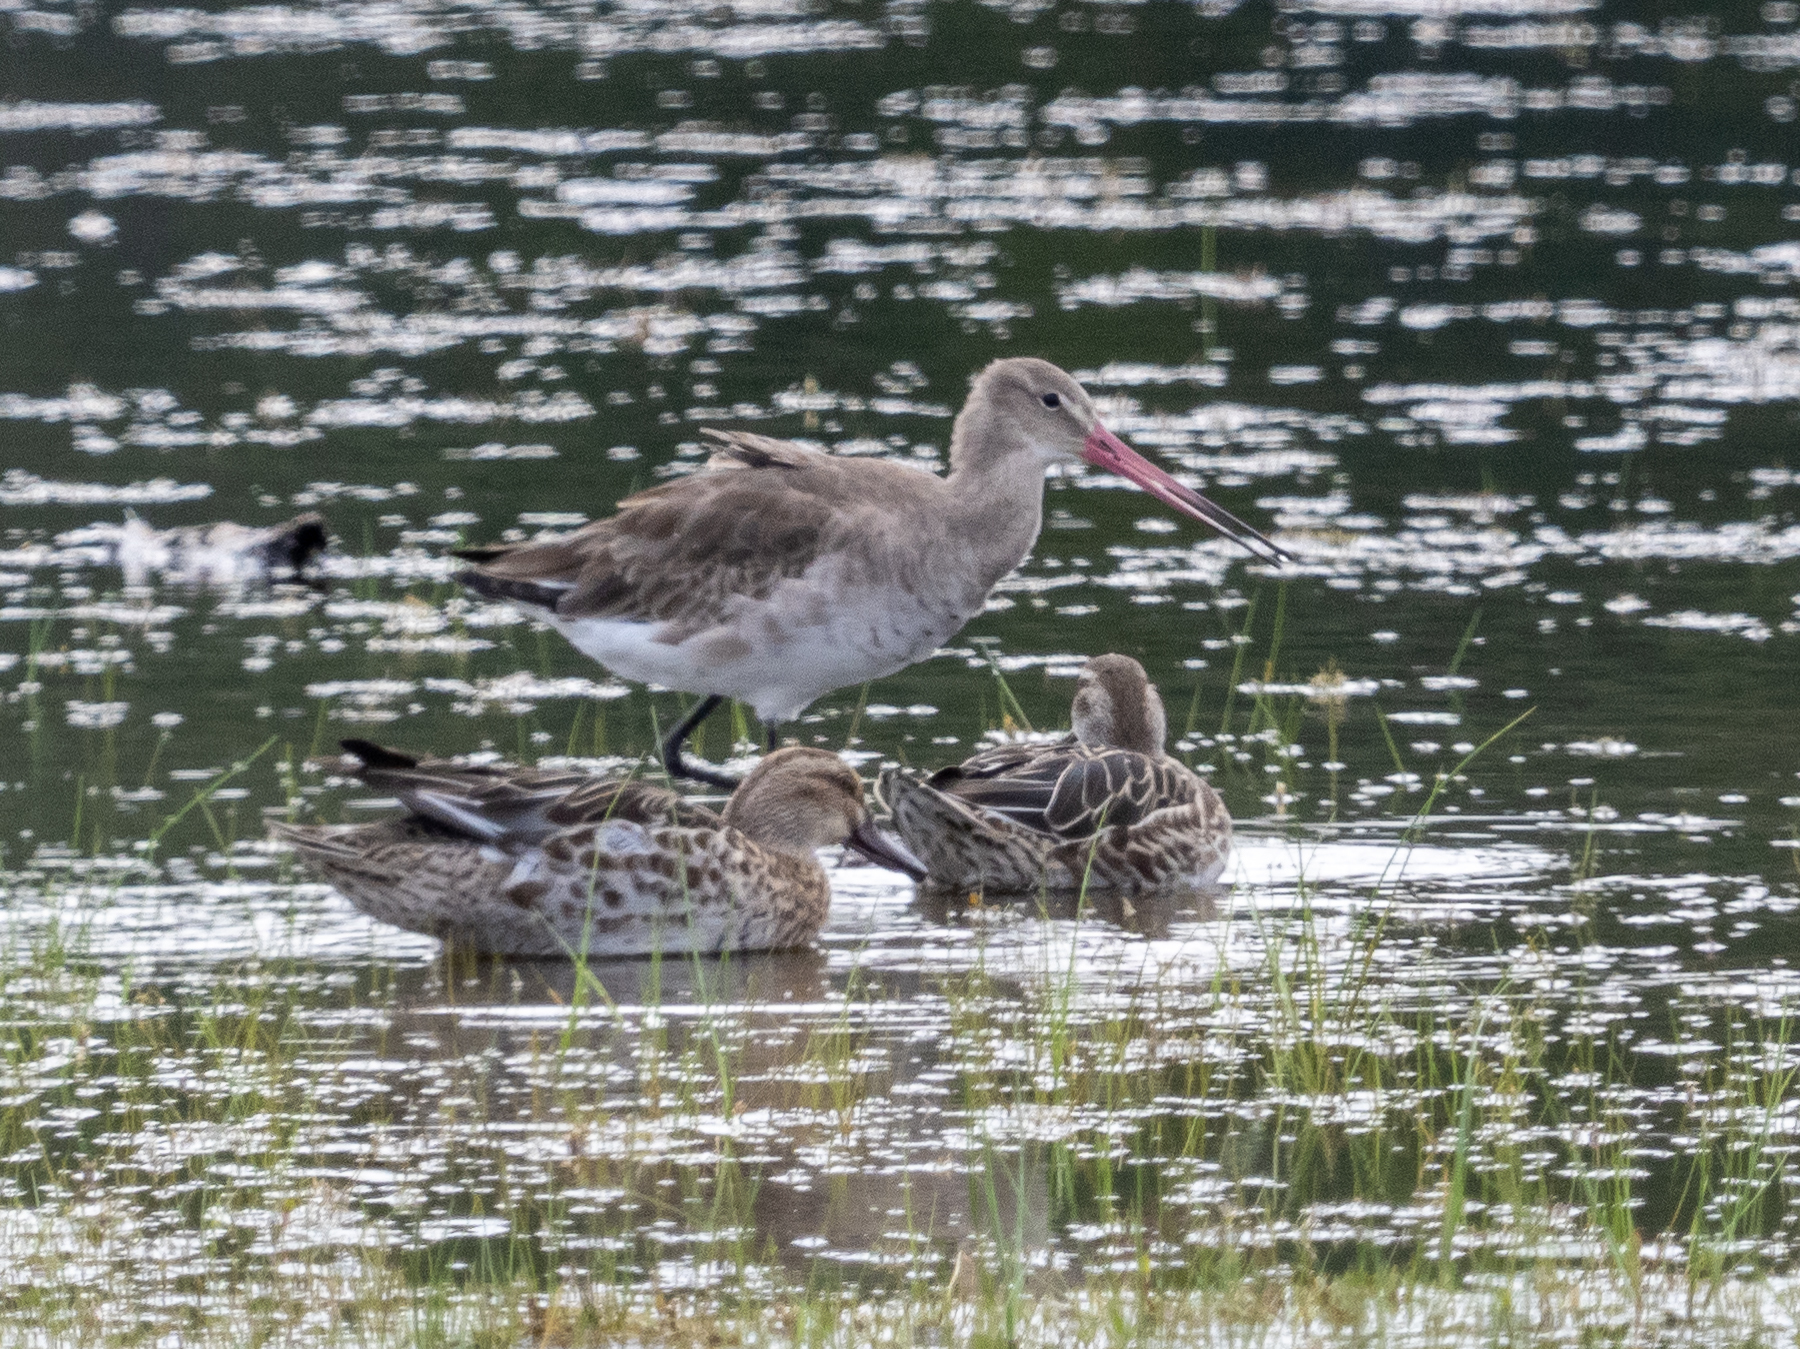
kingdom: Animalia
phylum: Chordata
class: Aves
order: Charadriiformes
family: Scolopacidae
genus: Limosa
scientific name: Limosa limosa
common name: Black-tailed godwit
